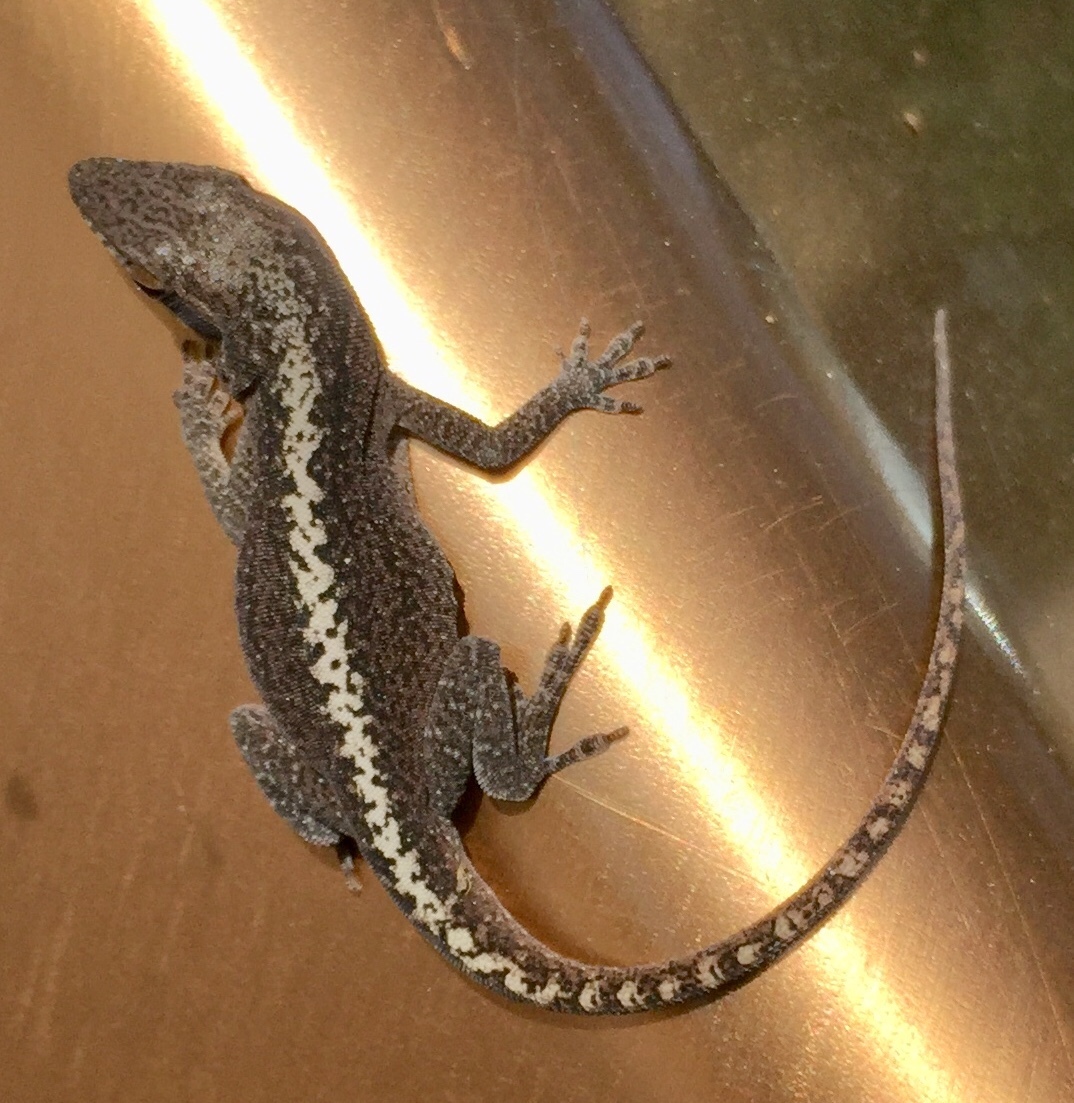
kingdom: Animalia
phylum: Chordata
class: Squamata
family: Dactyloidae
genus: Anolis
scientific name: Anolis carolinensis
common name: Green anole
